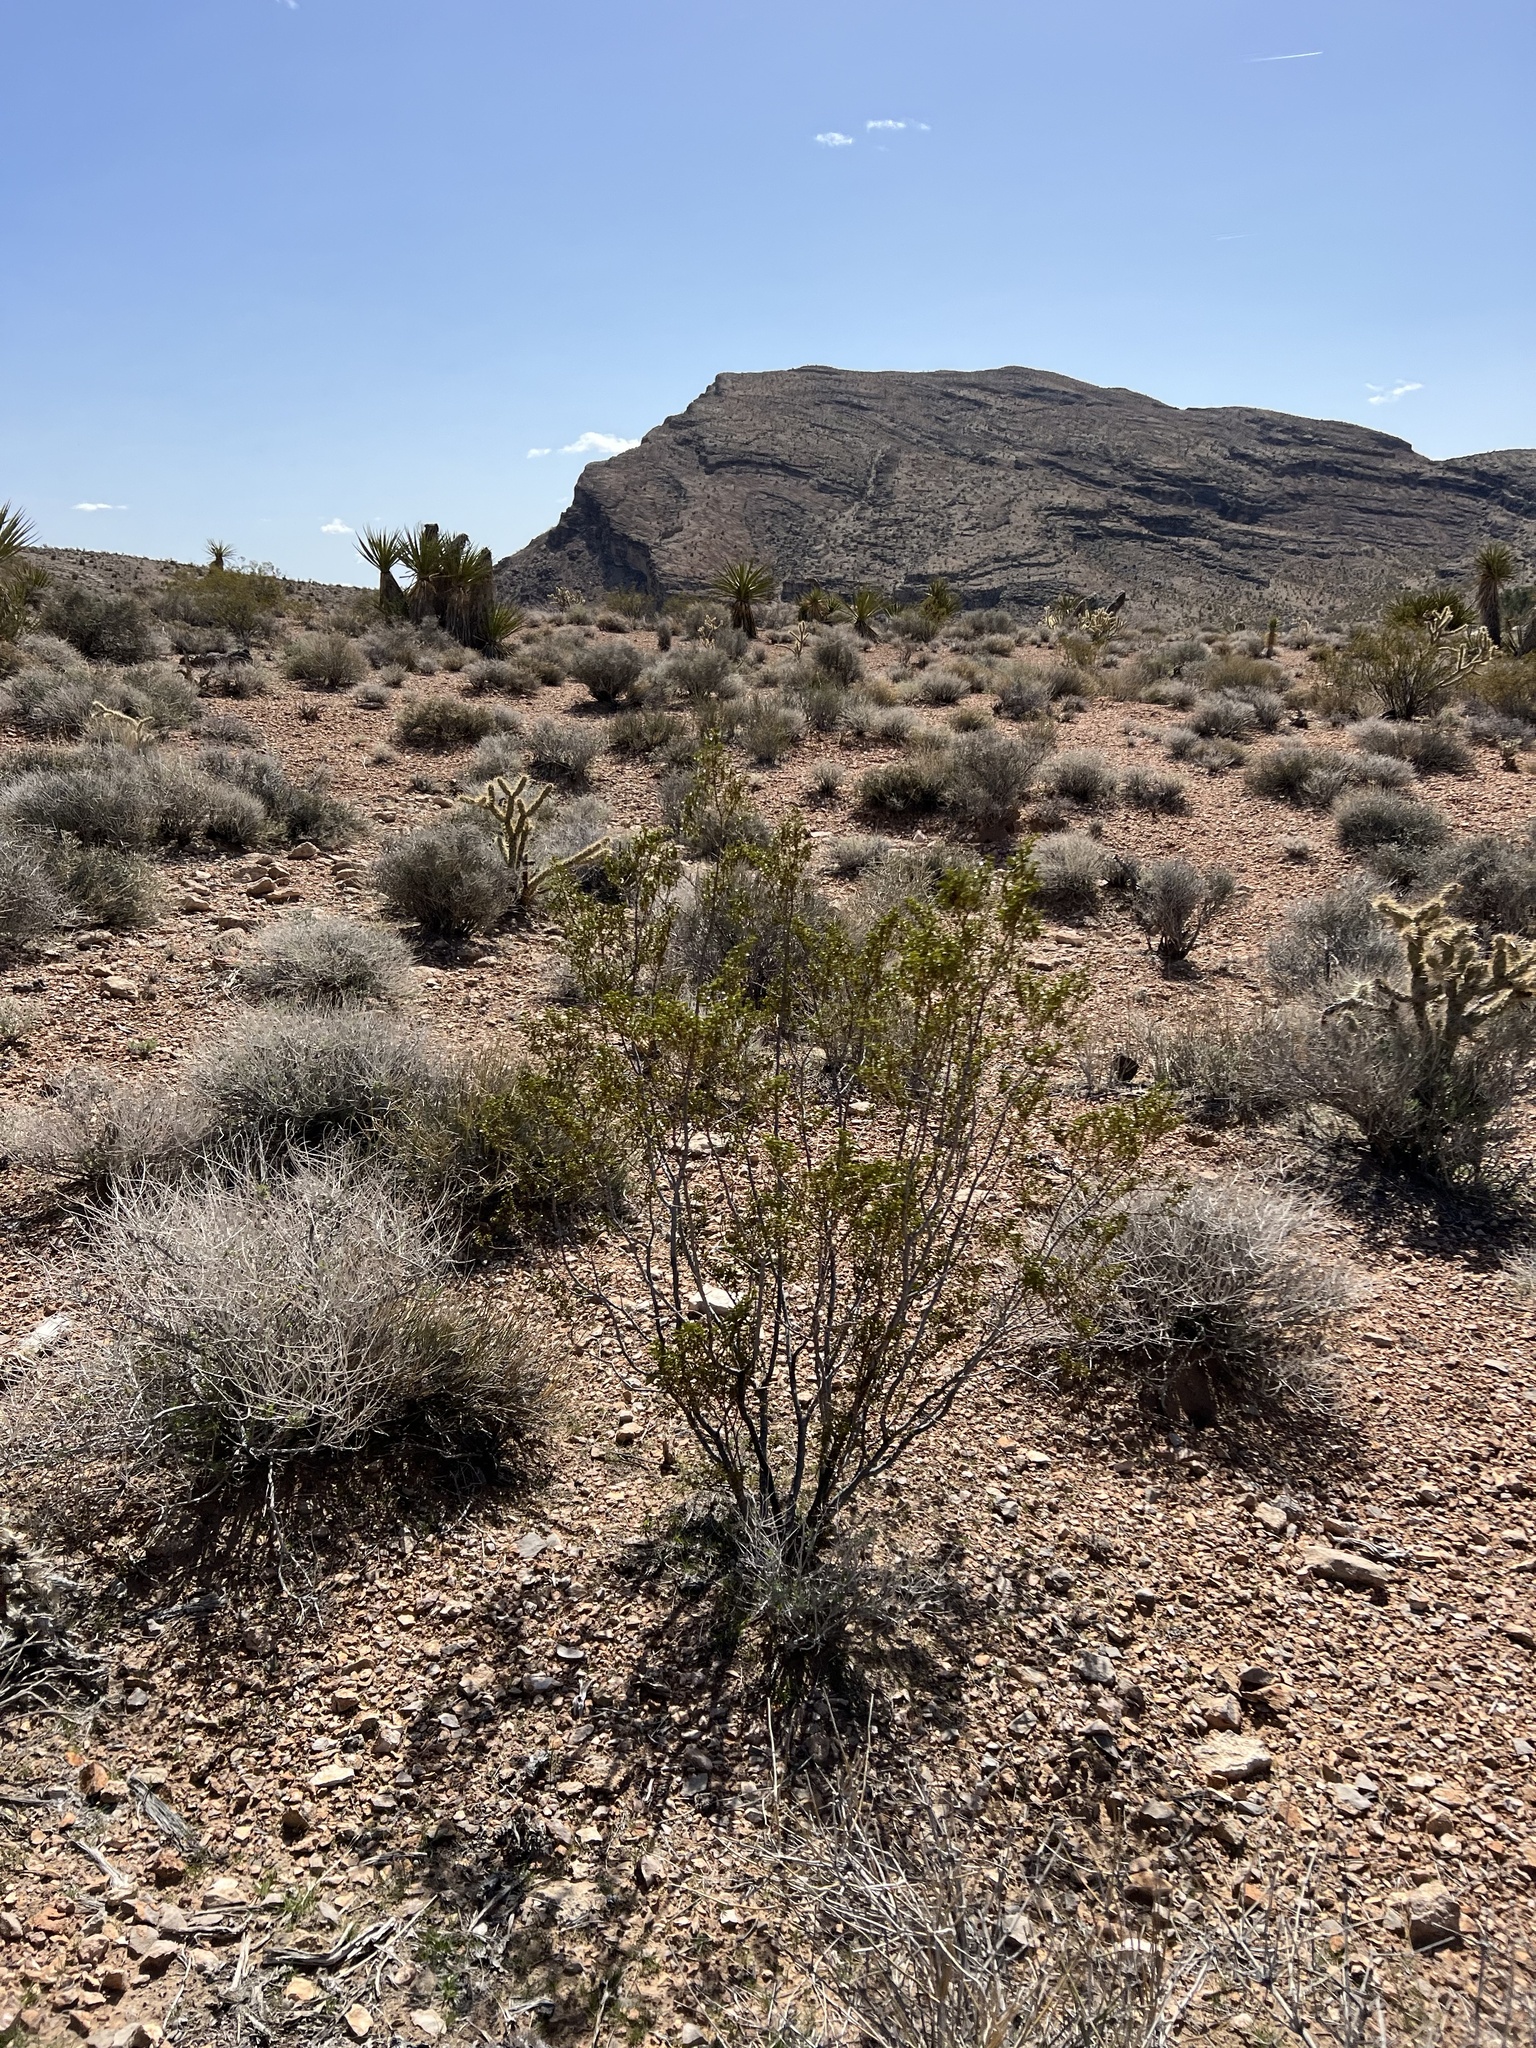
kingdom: Plantae
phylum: Tracheophyta
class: Magnoliopsida
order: Zygophyllales
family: Zygophyllaceae
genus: Larrea
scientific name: Larrea tridentata
